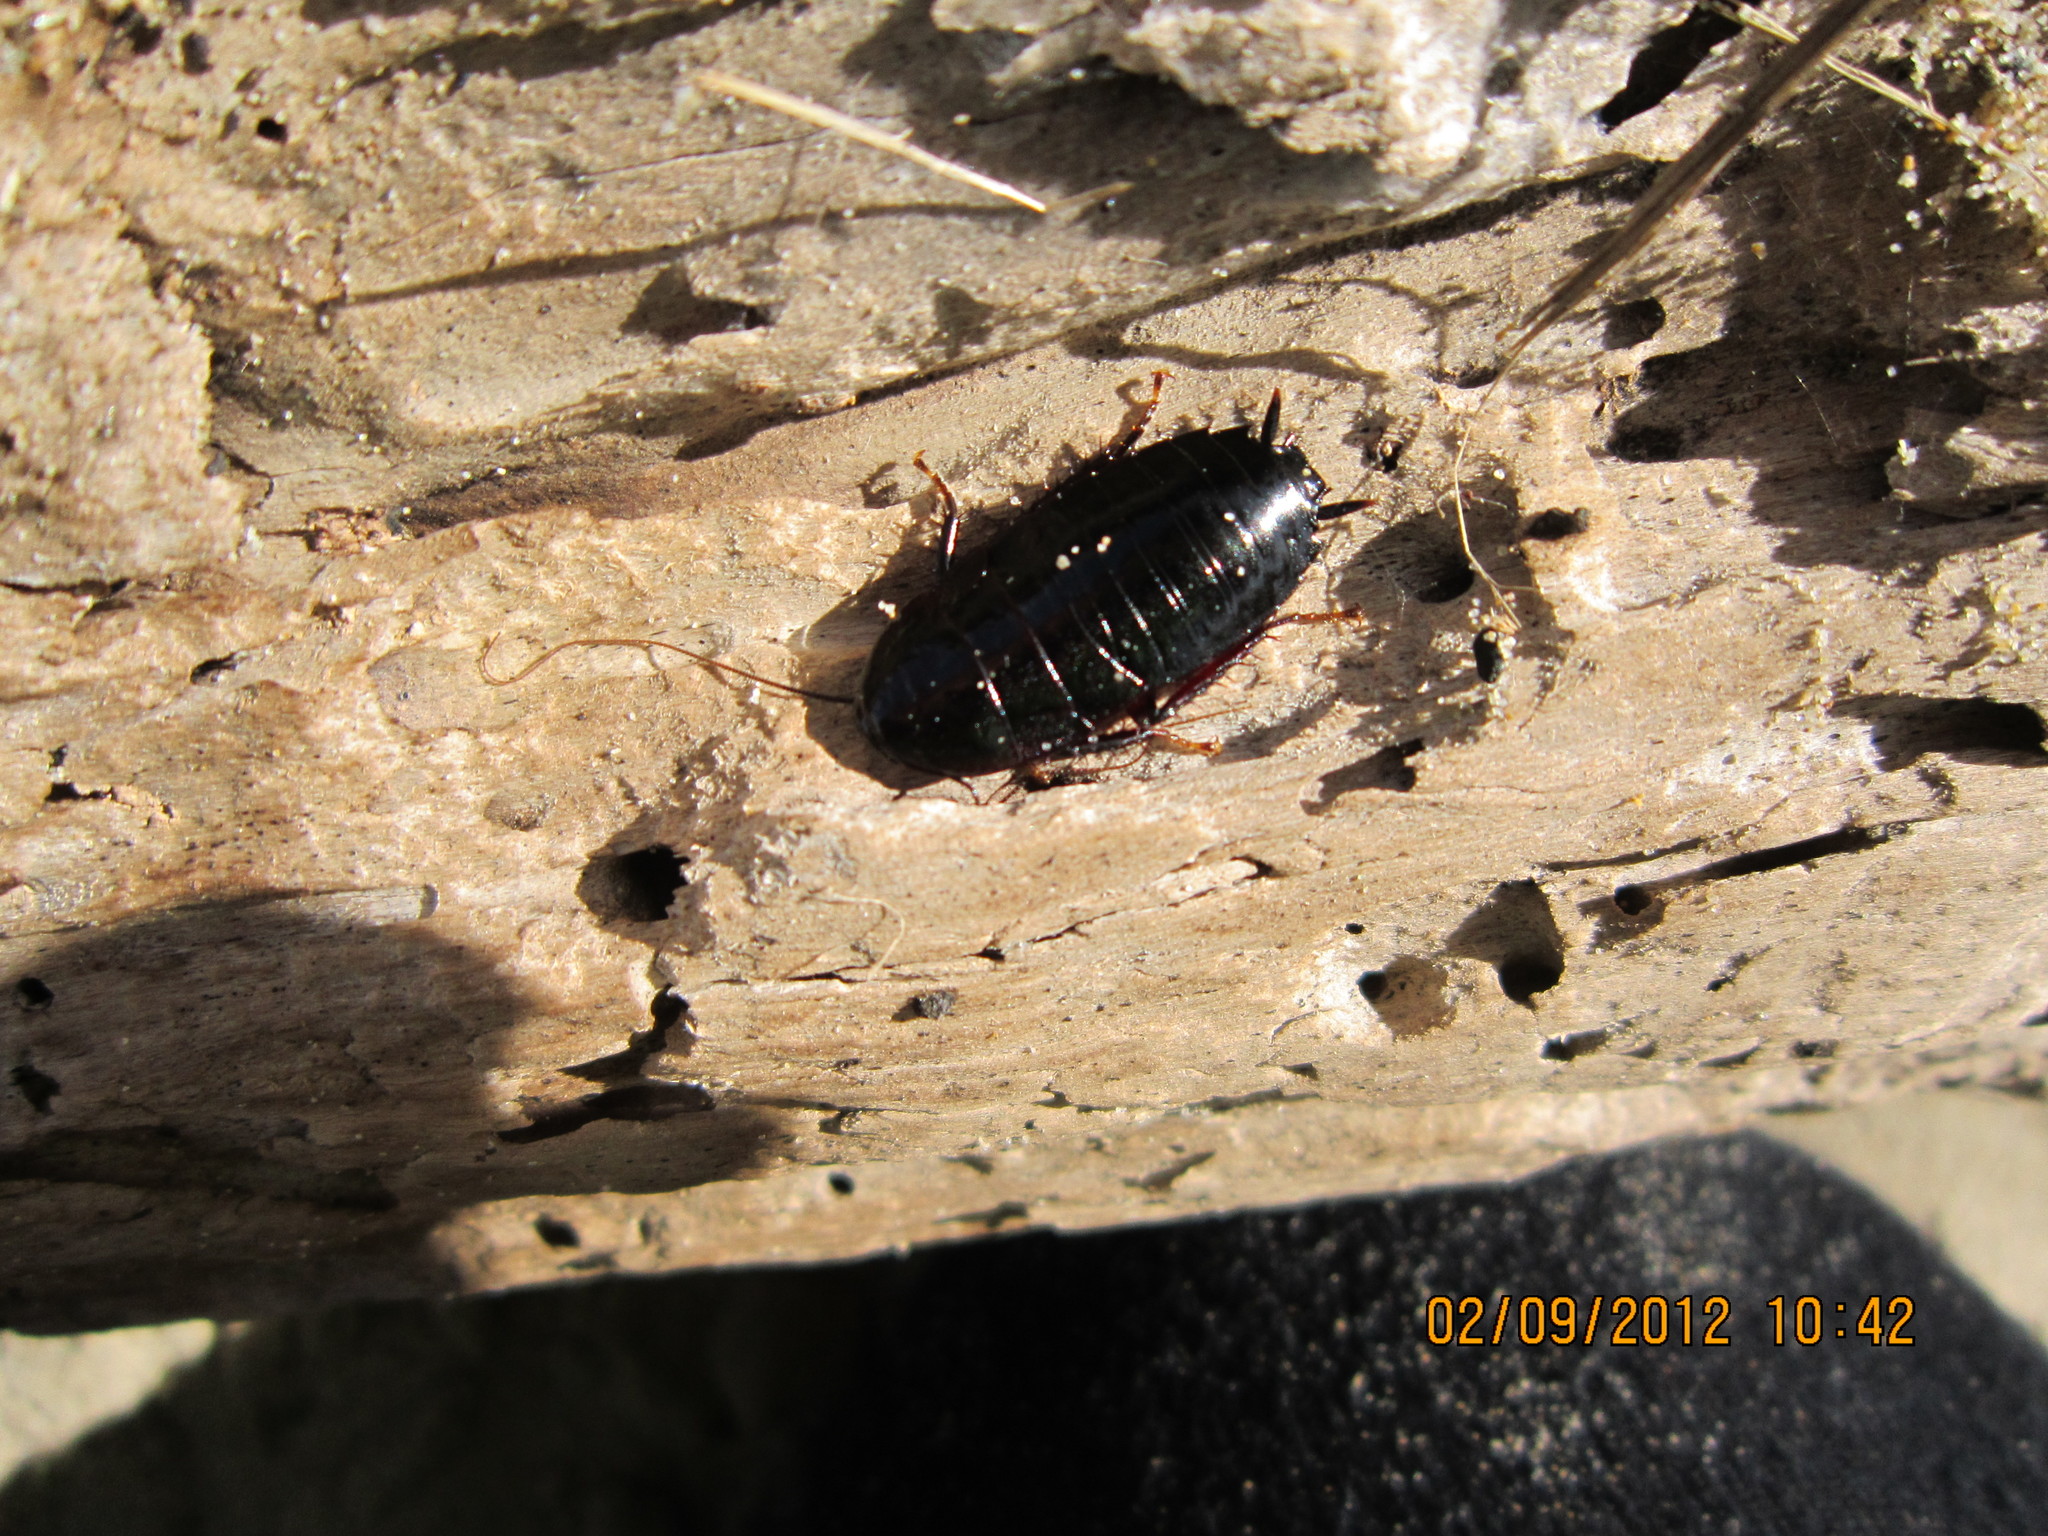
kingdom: Animalia
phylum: Arthropoda
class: Insecta
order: Blattodea
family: Blattidae
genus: Maoriblatta
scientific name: Maoriblatta novaeseelandiae
